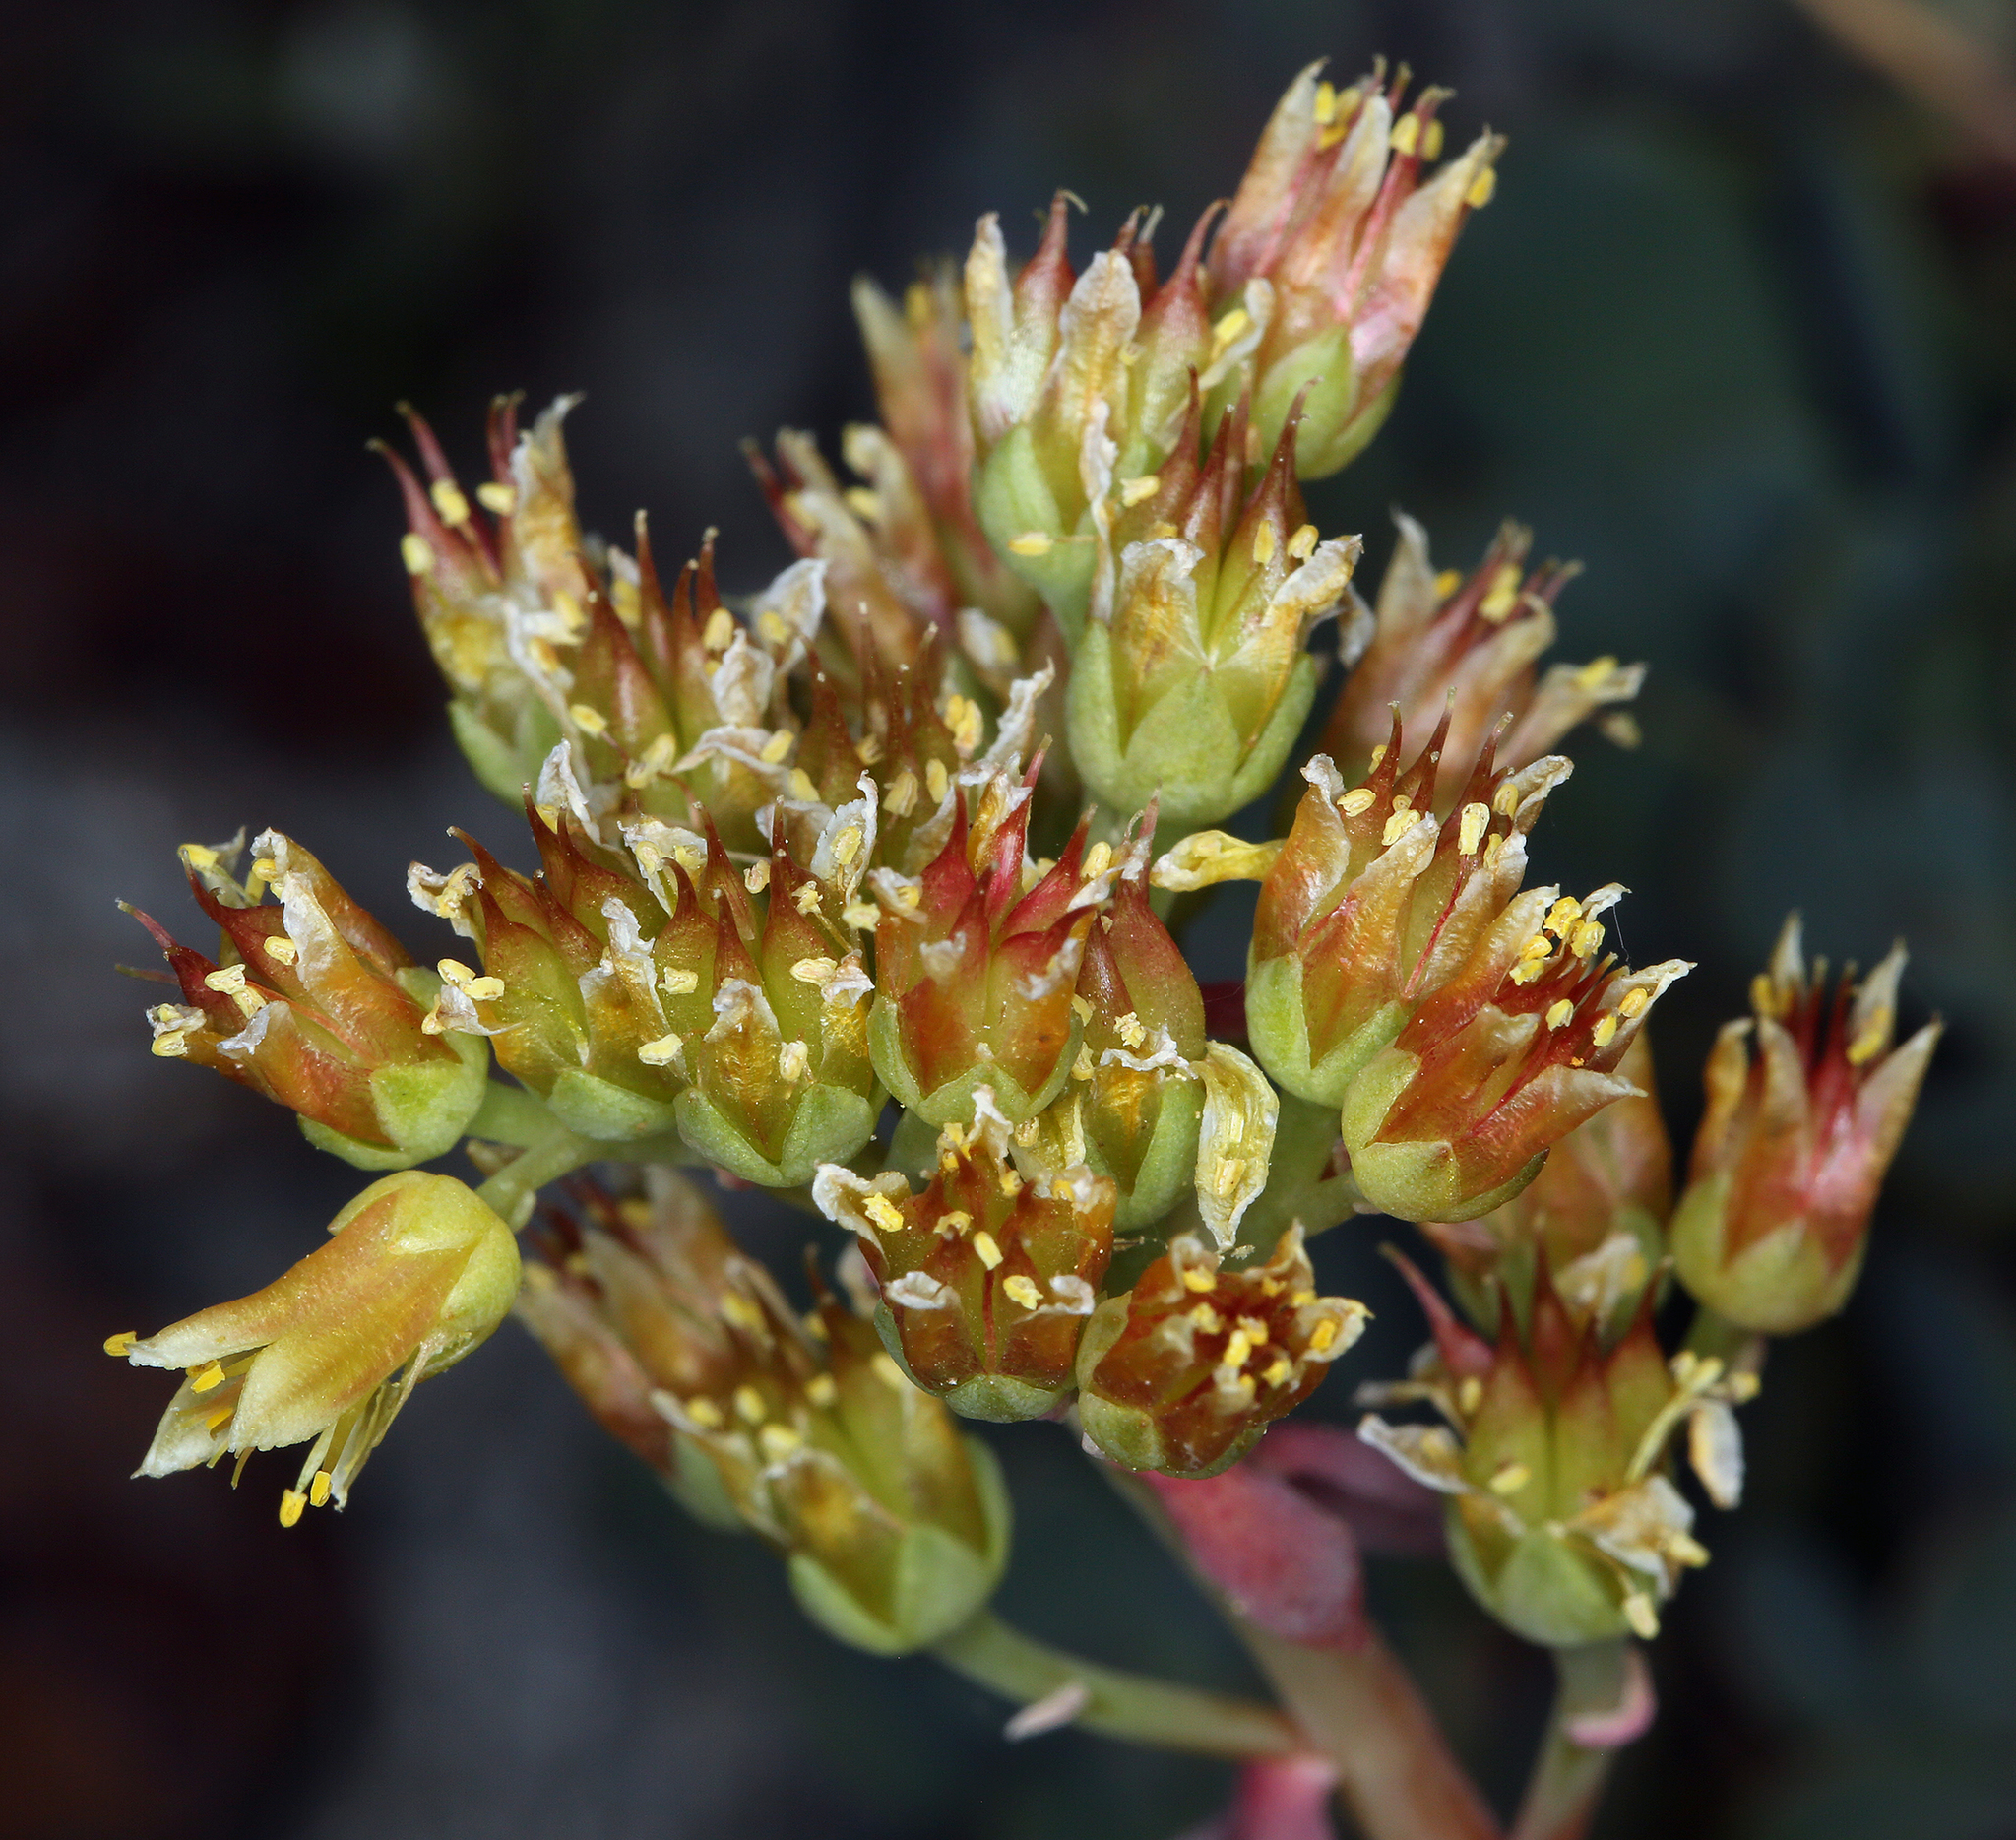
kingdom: Plantae
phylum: Tracheophyta
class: Magnoliopsida
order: Saxifragales
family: Crassulaceae
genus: Sedum
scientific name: Sedum flavidum
